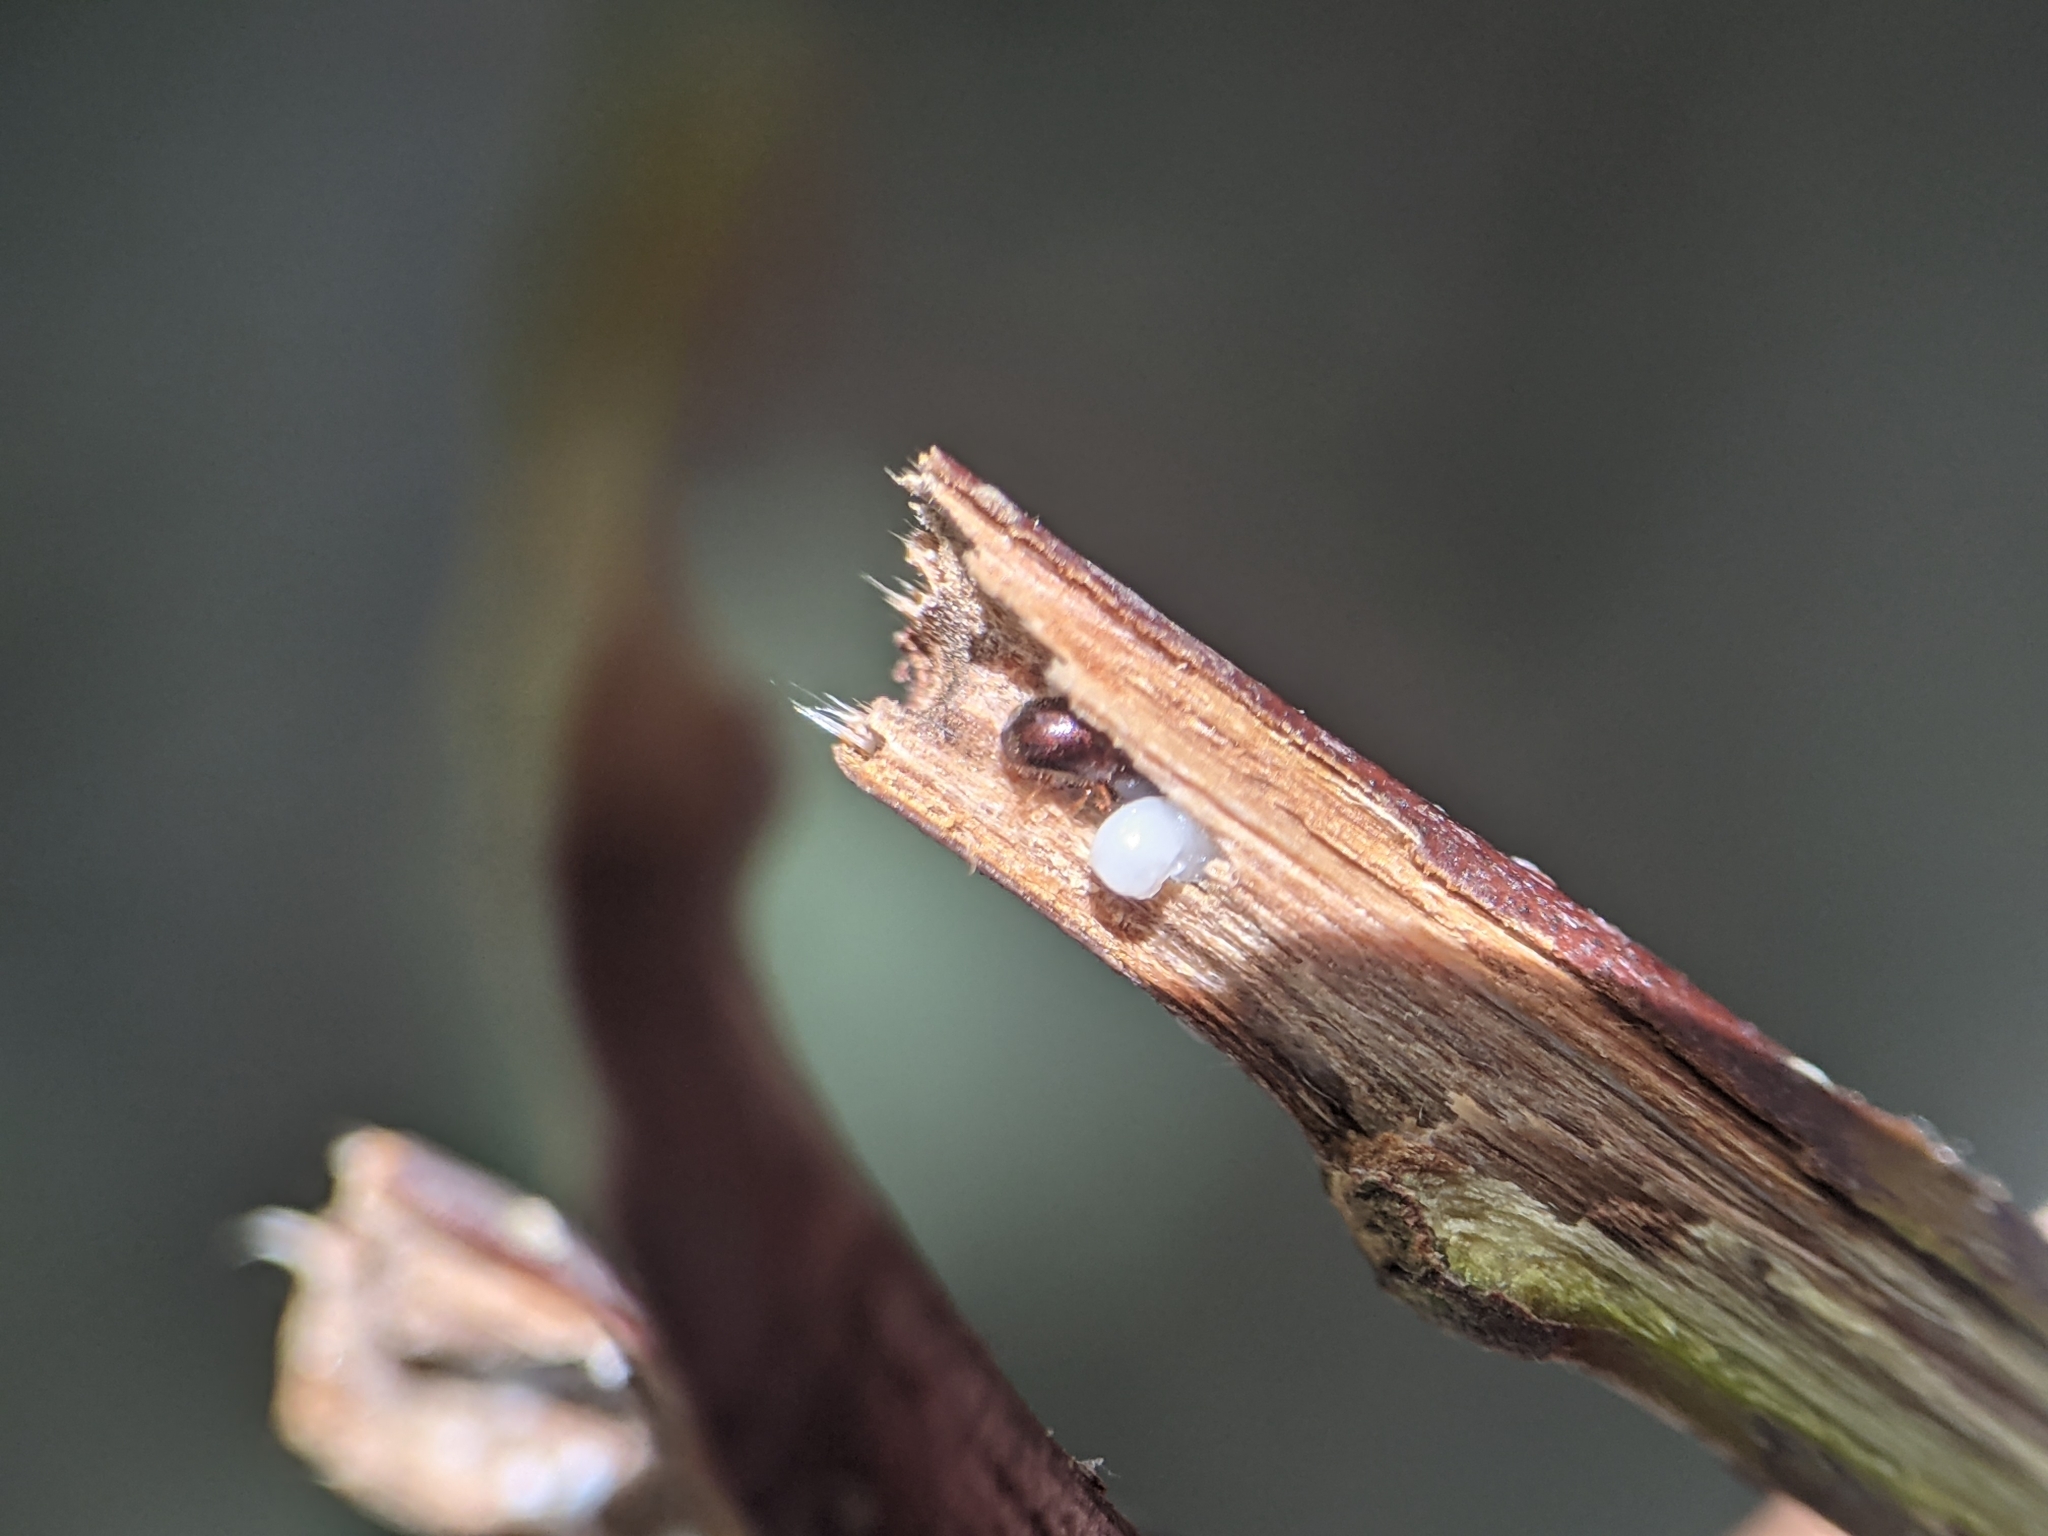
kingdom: Animalia
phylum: Arthropoda
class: Insecta
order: Coleoptera
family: Curculionidae
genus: Xylosandrus
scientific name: Xylosandrus compactus
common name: Black twig borer
